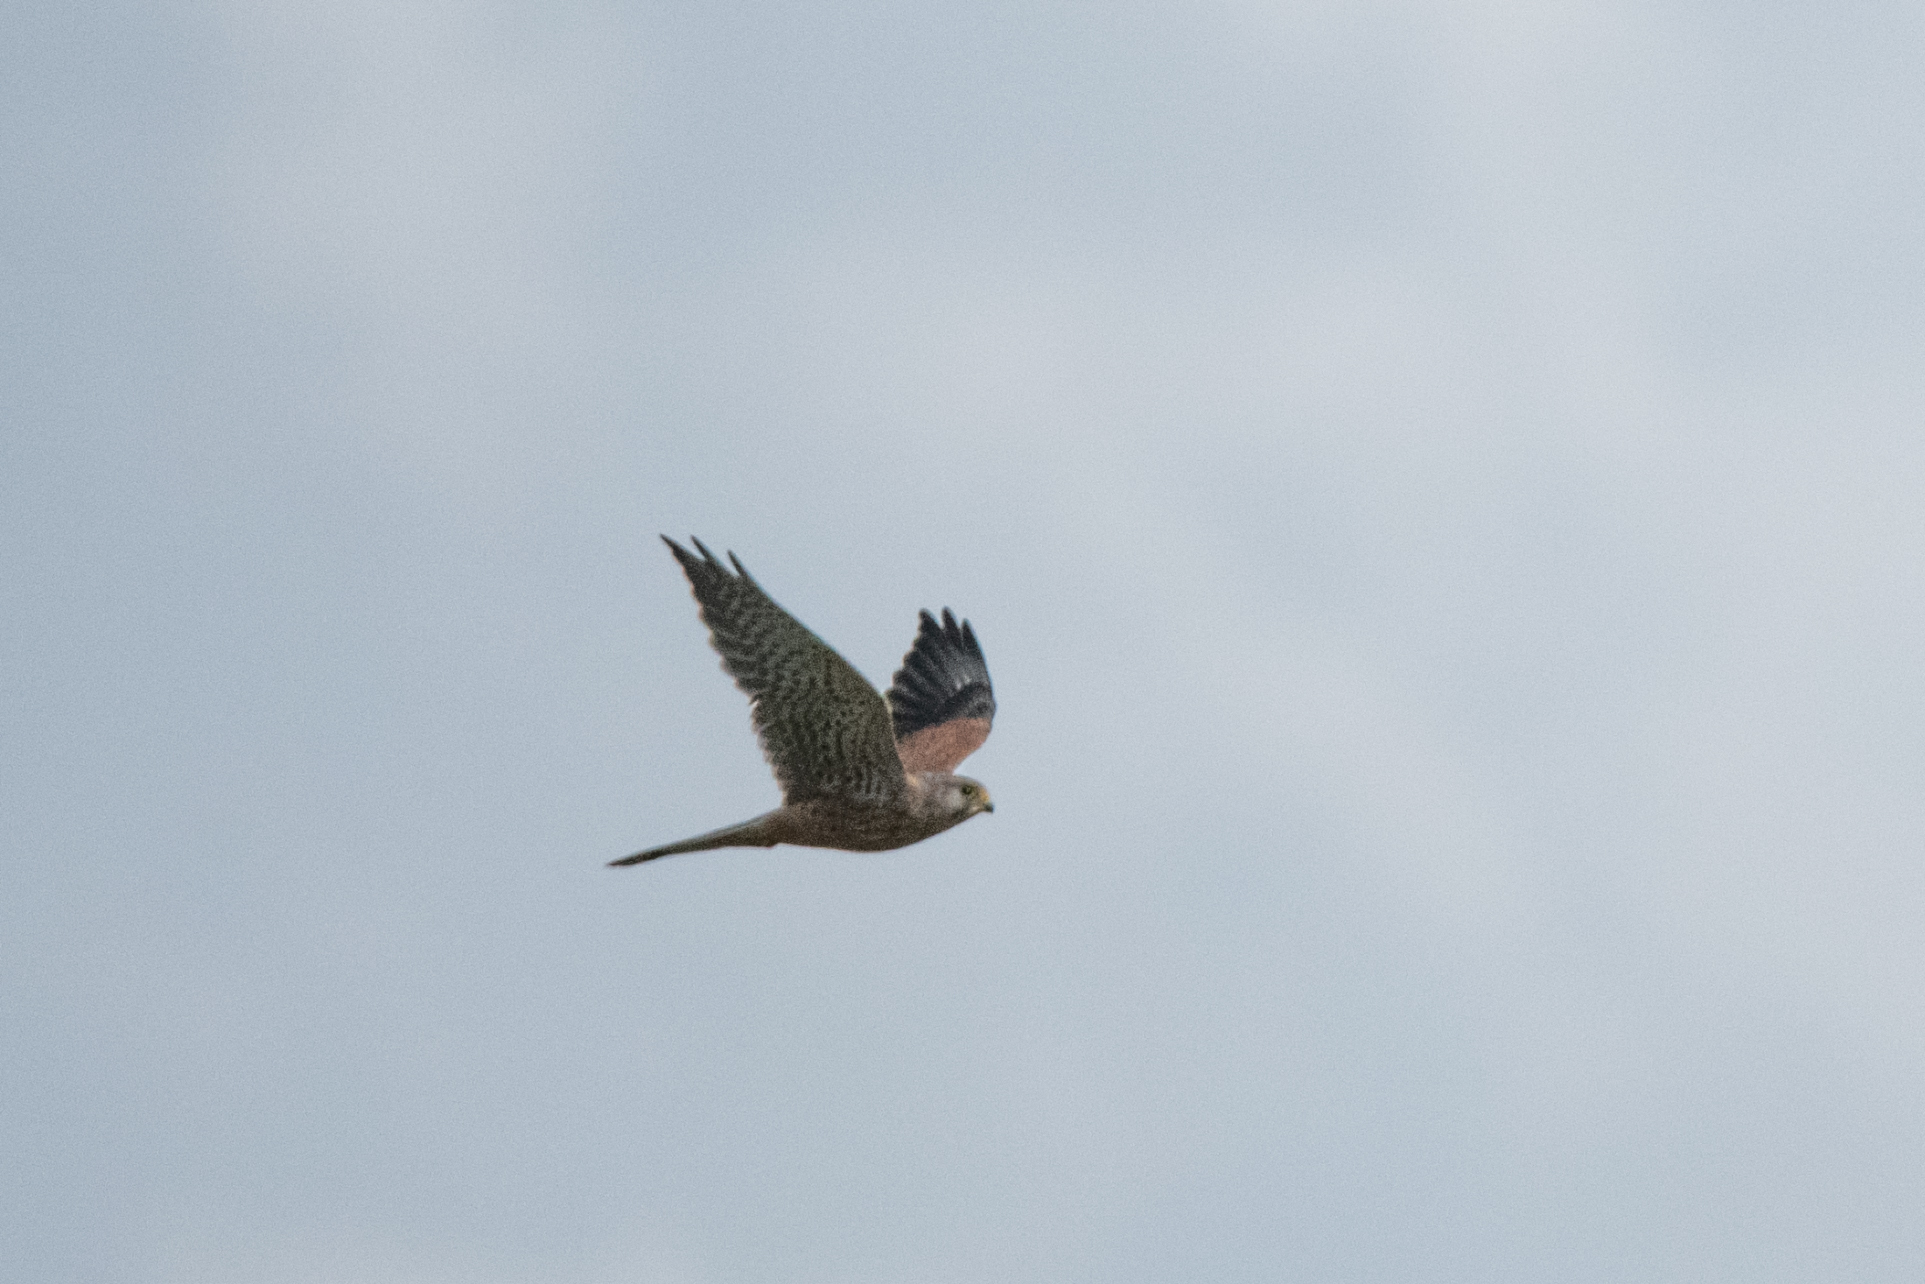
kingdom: Animalia
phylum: Chordata
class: Aves
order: Falconiformes
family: Falconidae
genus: Falco
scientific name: Falco tinnunculus
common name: Common kestrel
